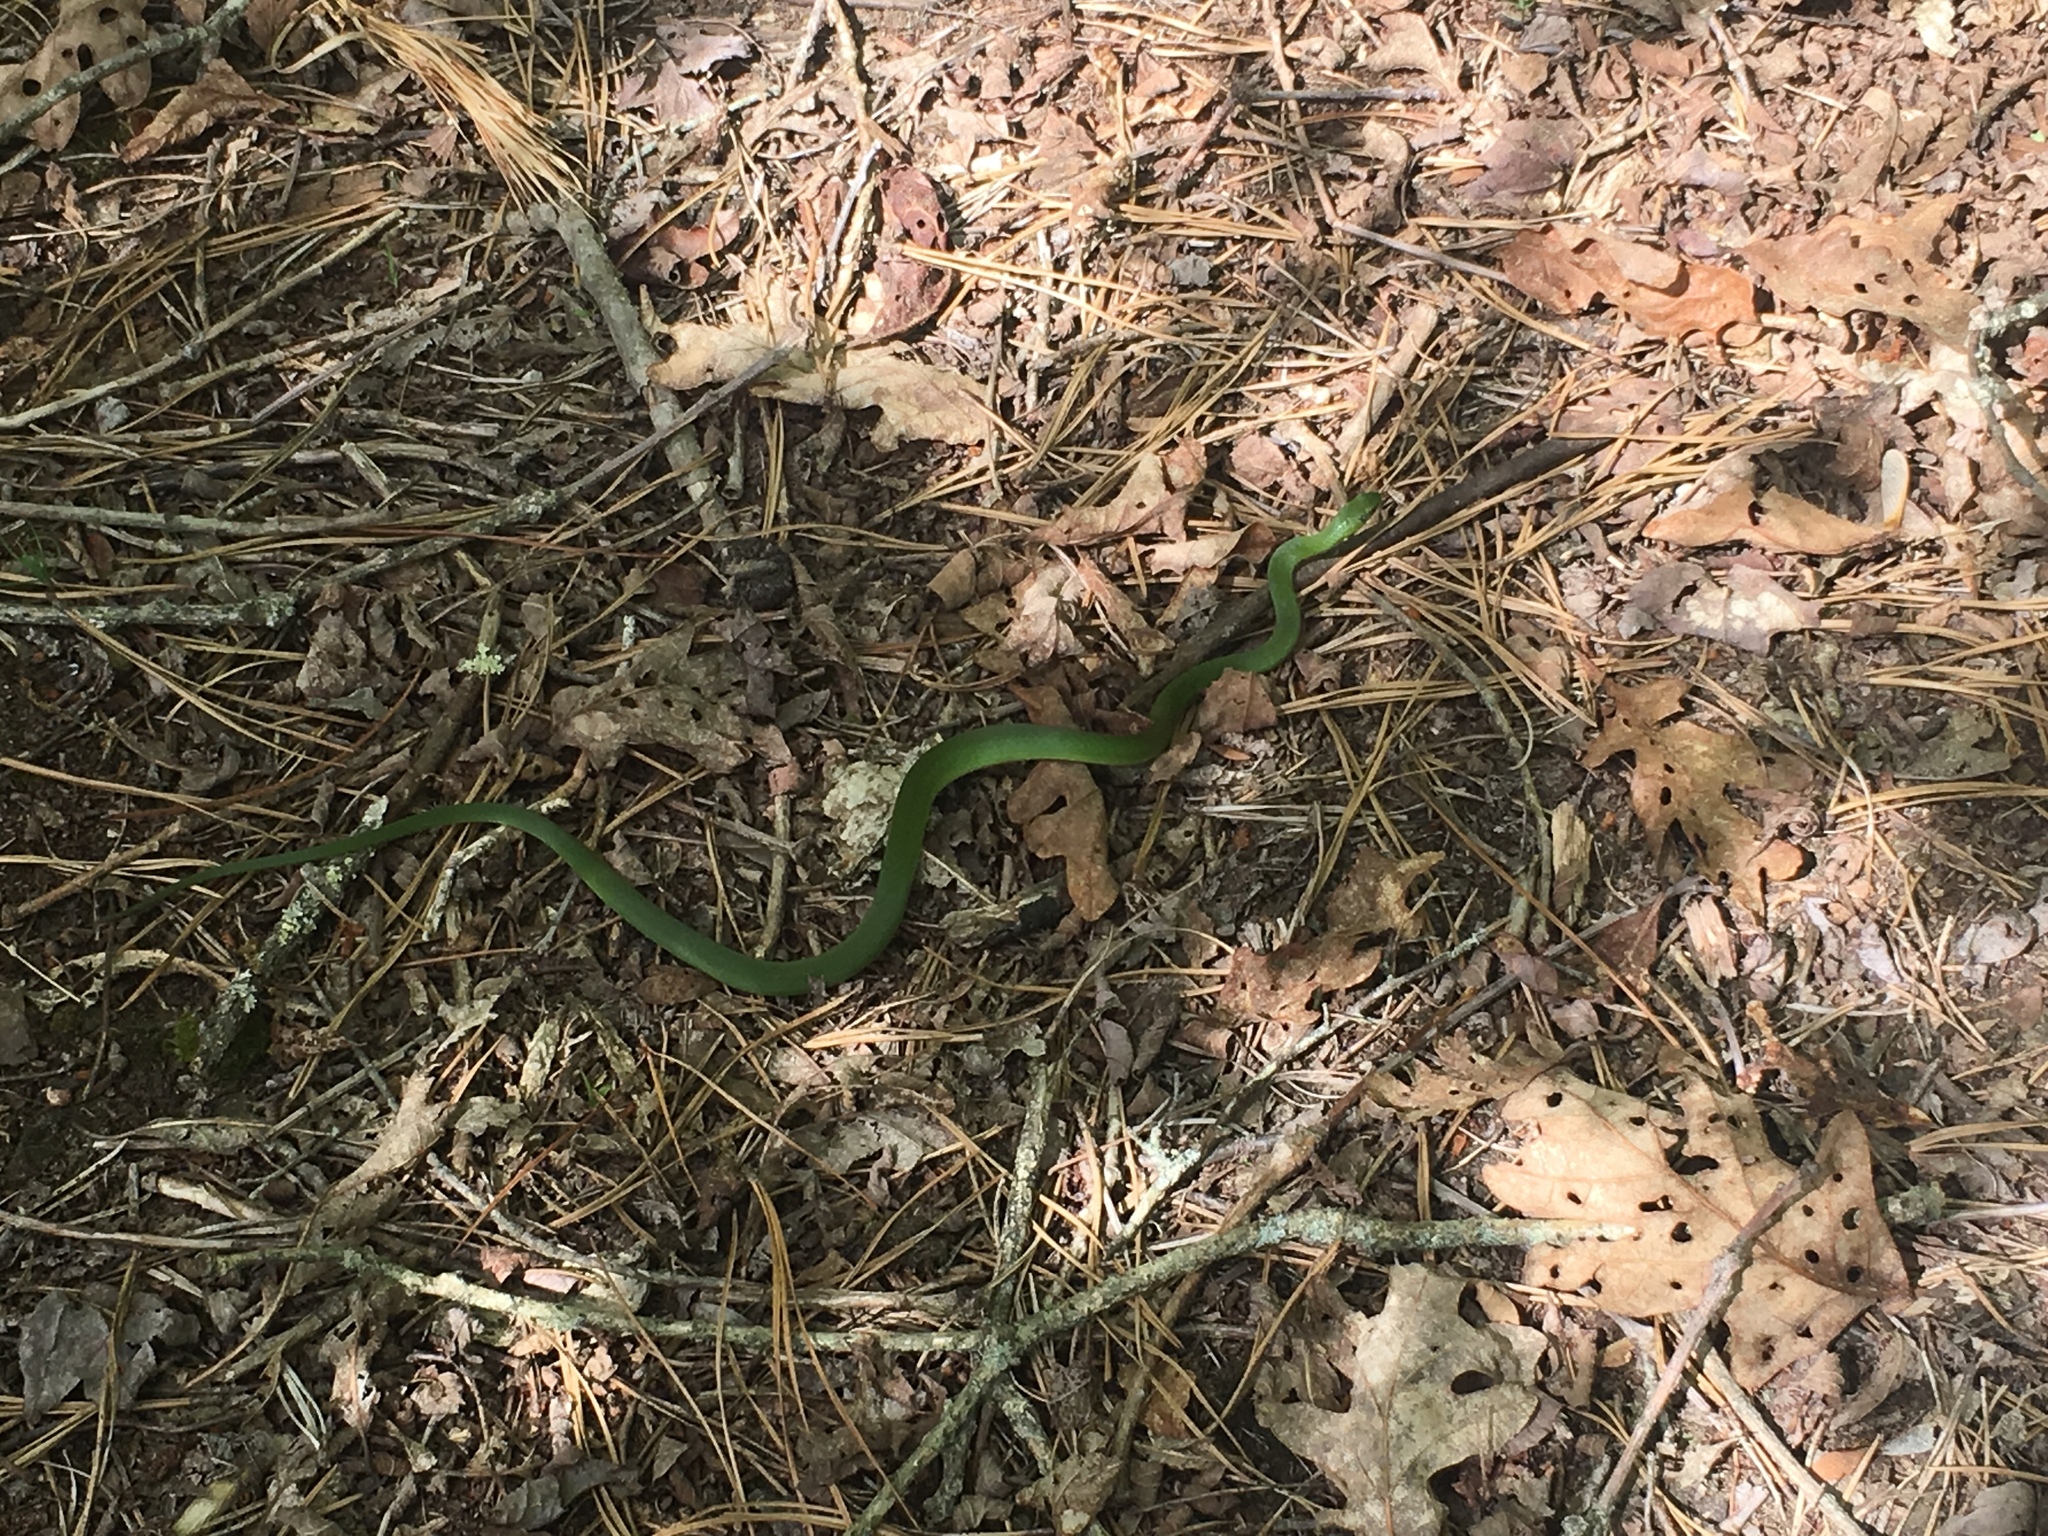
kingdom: Animalia
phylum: Chordata
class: Squamata
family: Colubridae
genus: Opheodrys
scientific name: Opheodrys vernalis
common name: Smooth green snake
